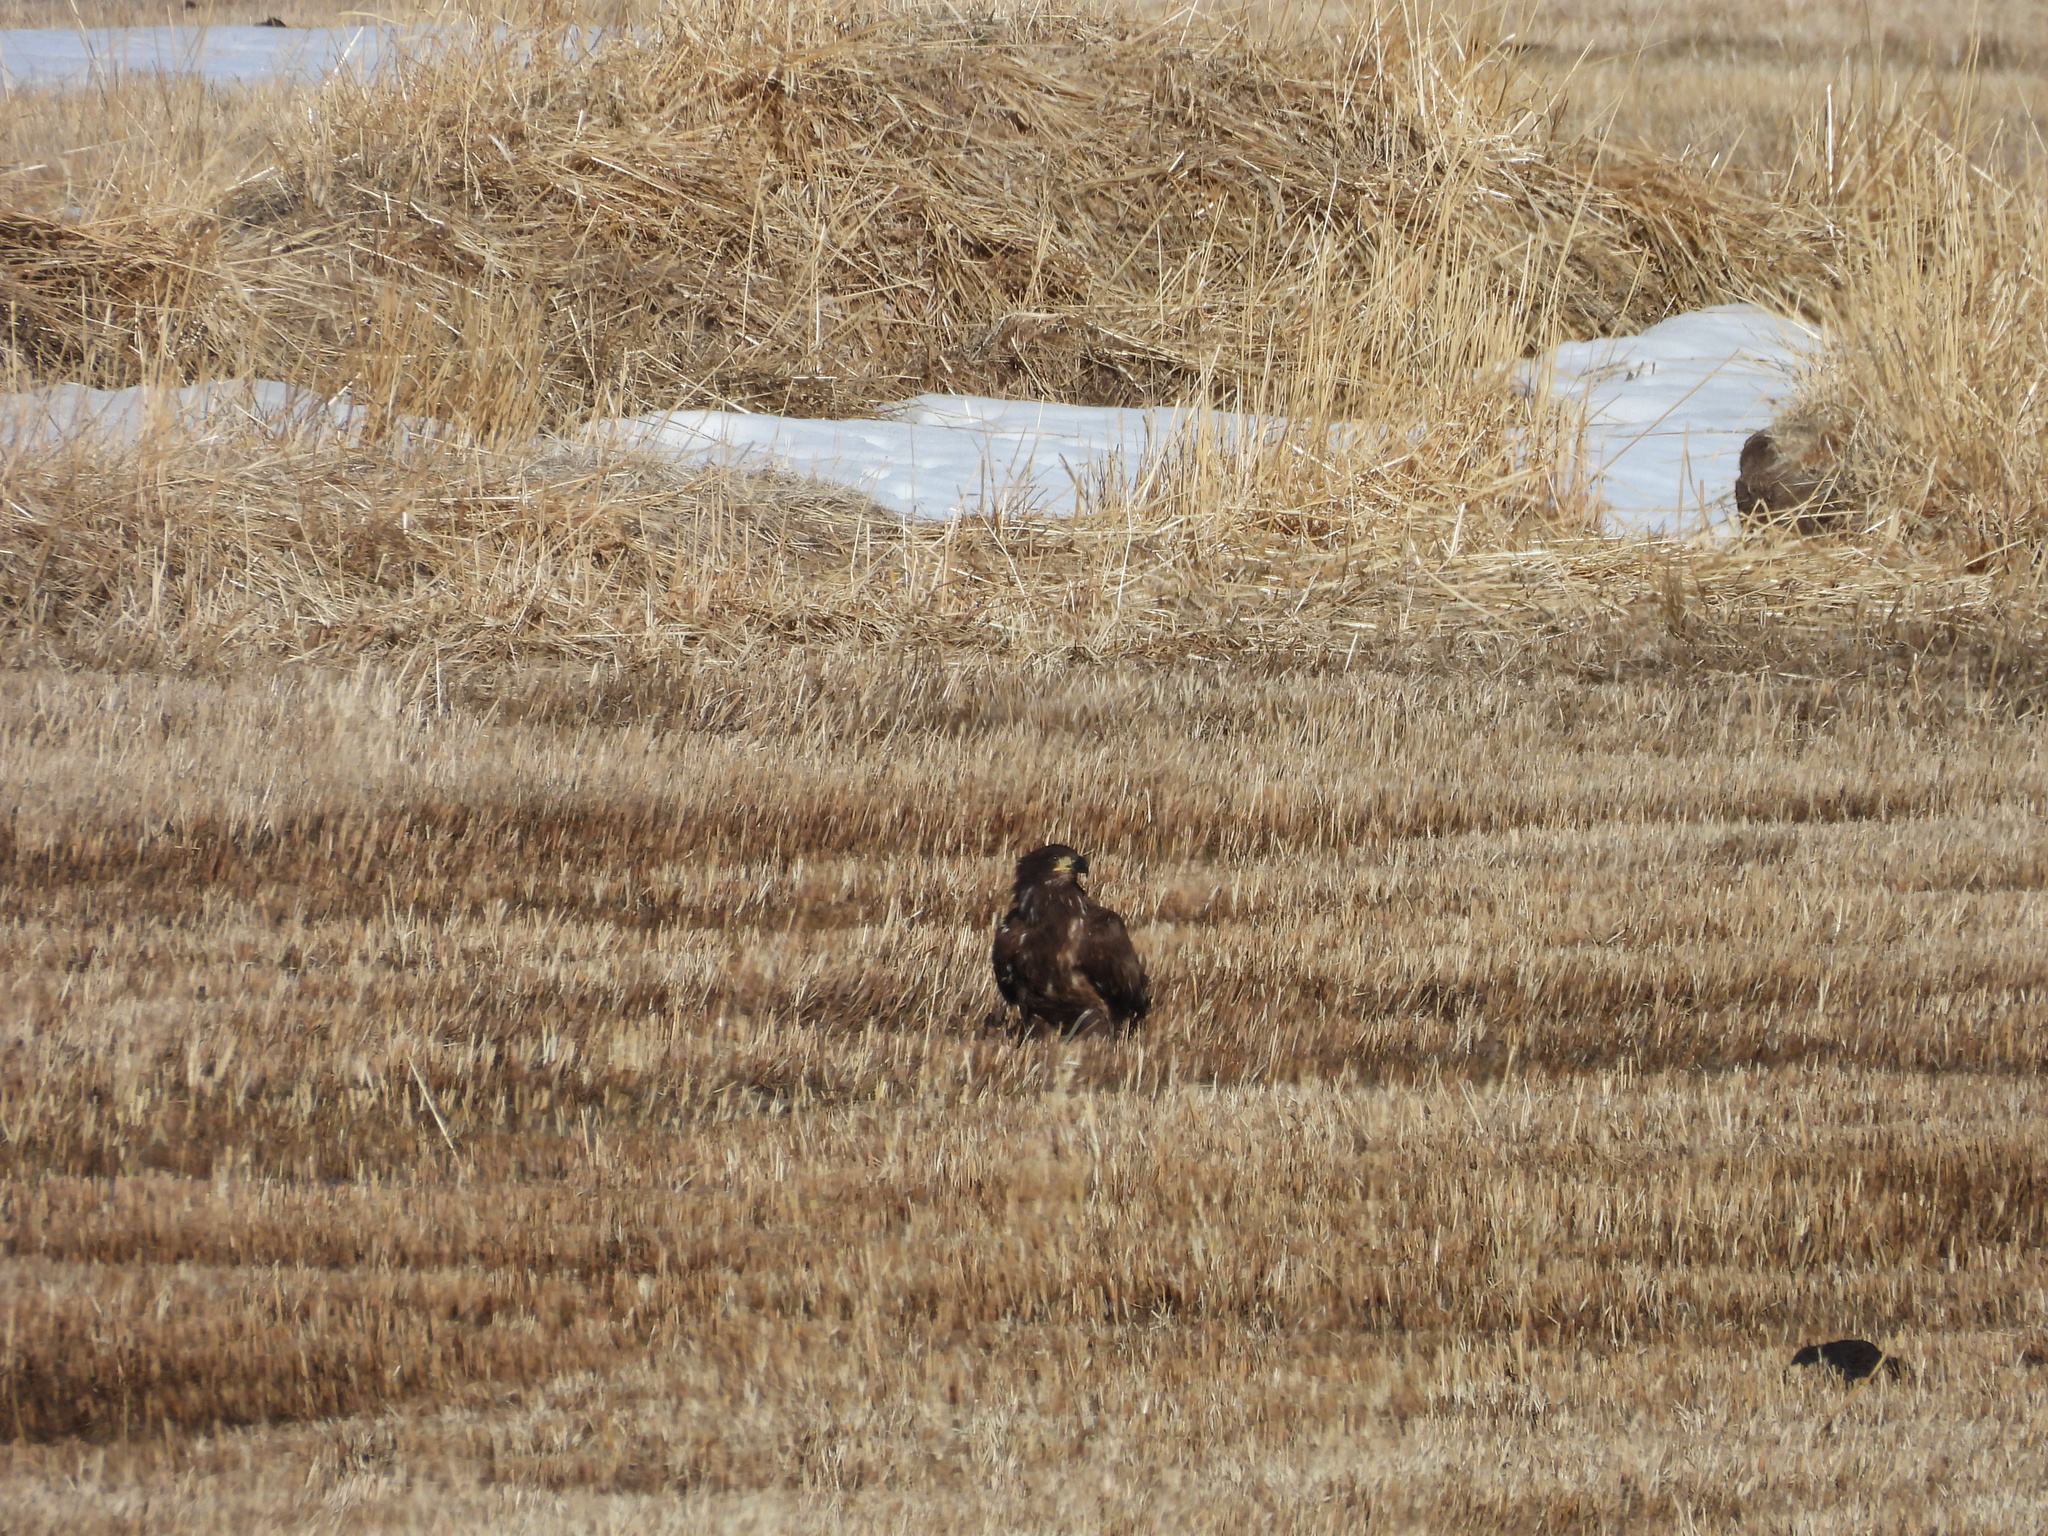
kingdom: Animalia
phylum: Chordata
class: Aves
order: Accipitriformes
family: Accipitridae
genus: Haliaeetus
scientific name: Haliaeetus leucocephalus
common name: Bald eagle
